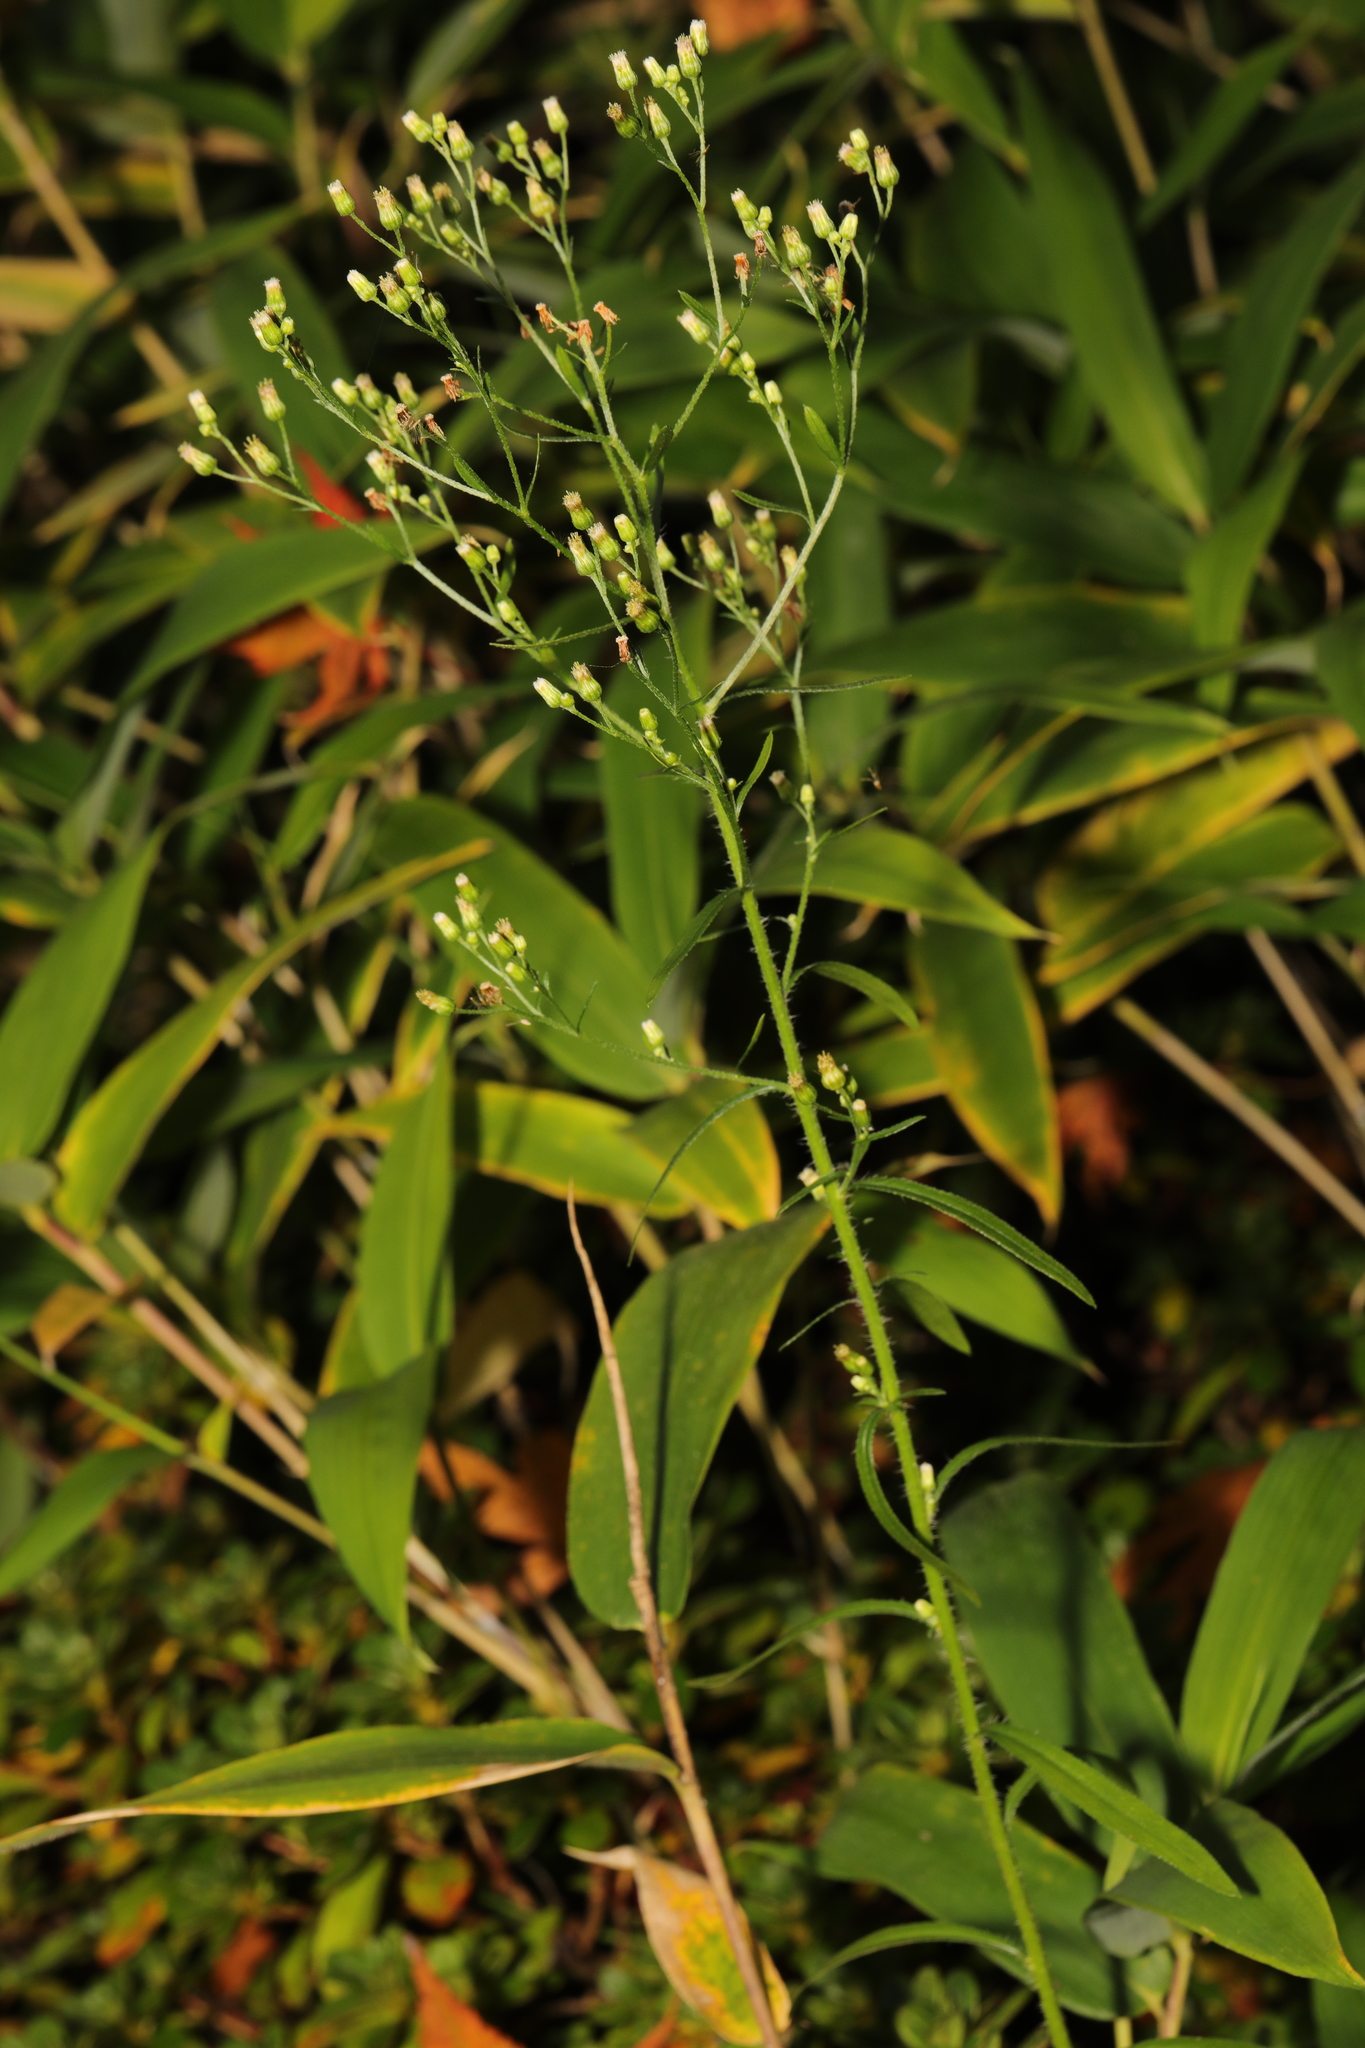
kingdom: Plantae
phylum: Tracheophyta
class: Magnoliopsida
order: Asterales
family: Asteraceae
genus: Erigeron
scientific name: Erigeron canadensis
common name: Canadian fleabane
